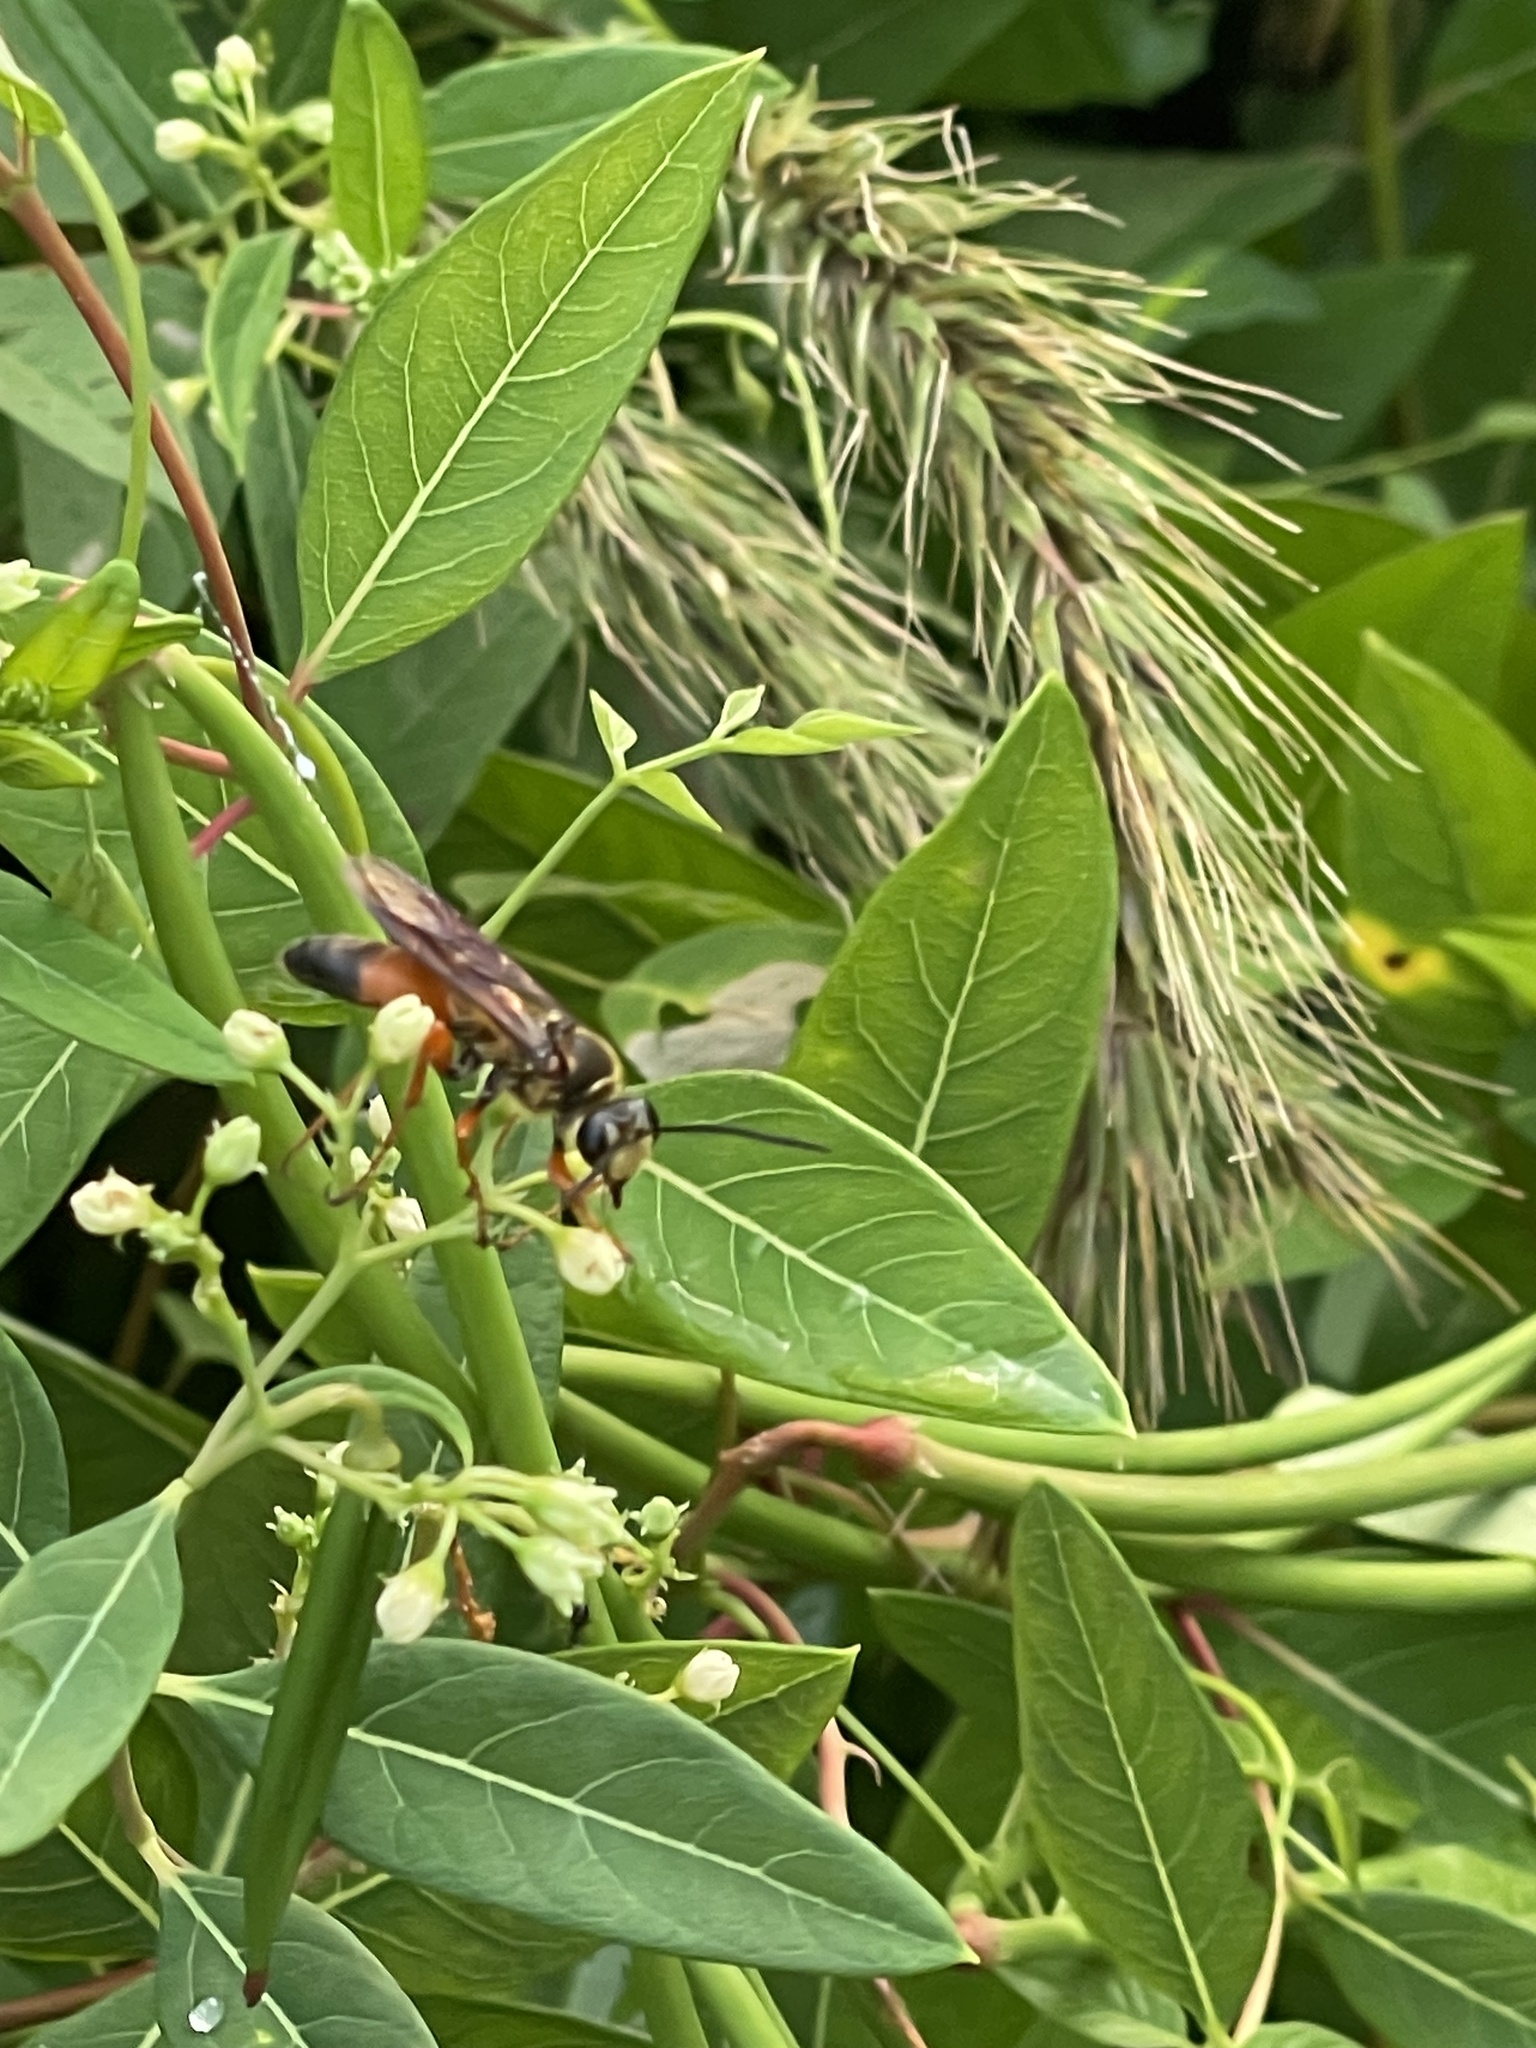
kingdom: Animalia
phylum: Arthropoda
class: Insecta
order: Hymenoptera
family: Sphecidae
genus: Sphex
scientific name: Sphex ichneumoneus
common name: Great golden digger wasp
